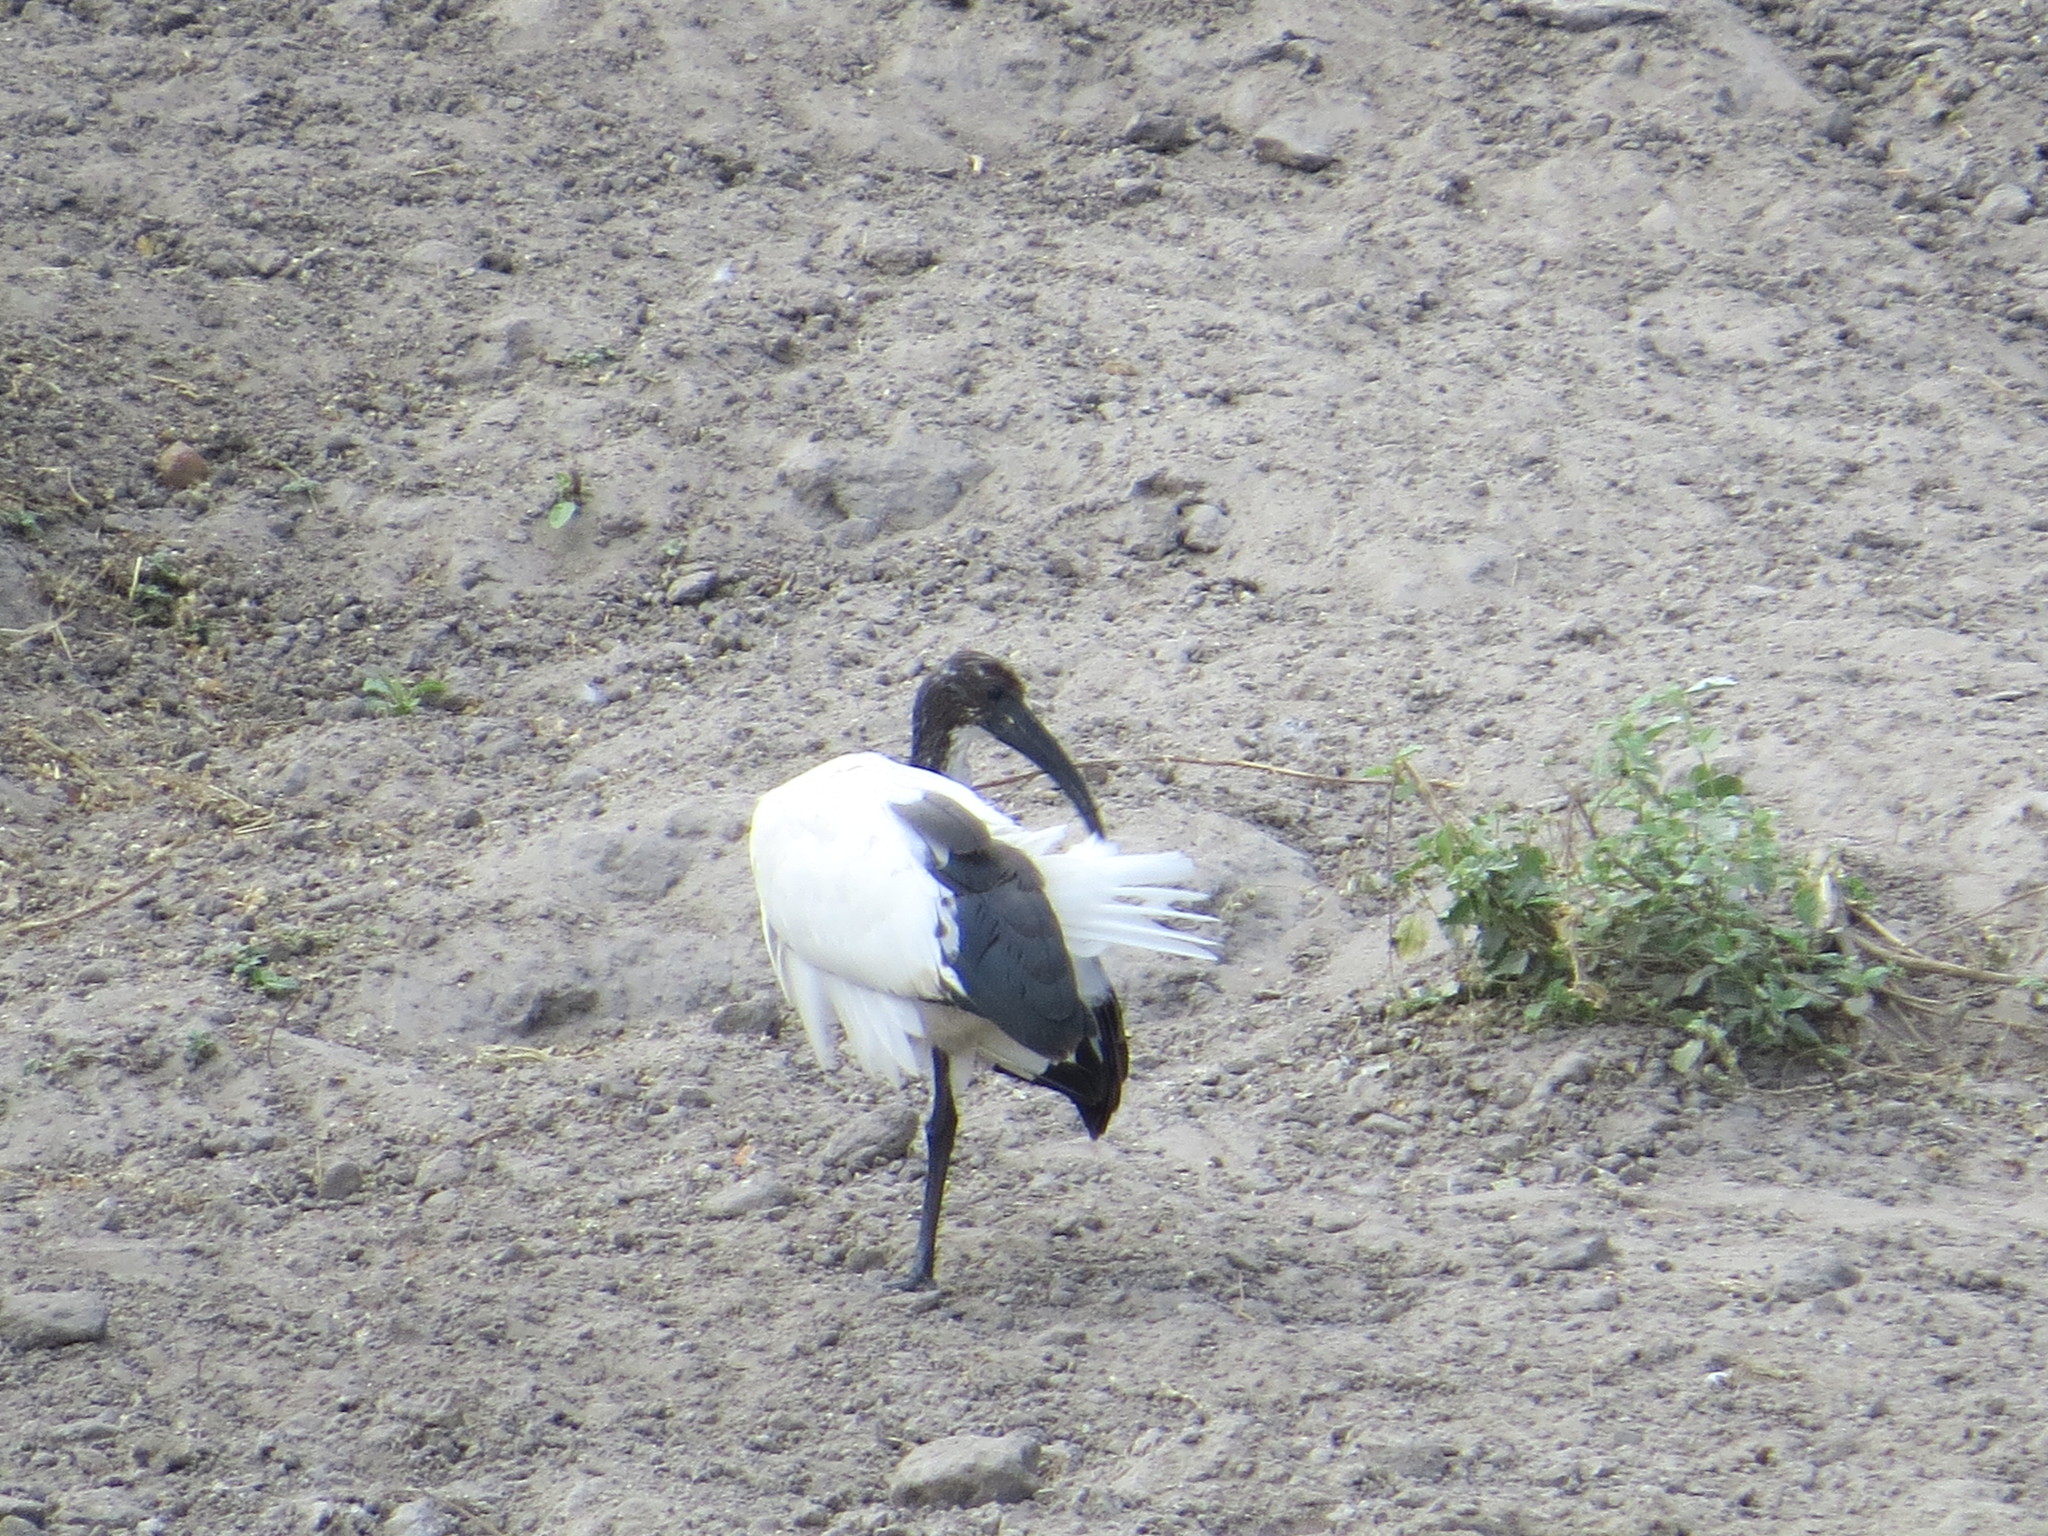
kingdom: Animalia
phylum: Chordata
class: Aves
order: Pelecaniformes
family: Threskiornithidae
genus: Threskiornis
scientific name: Threskiornis aethiopicus
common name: Sacred ibis
